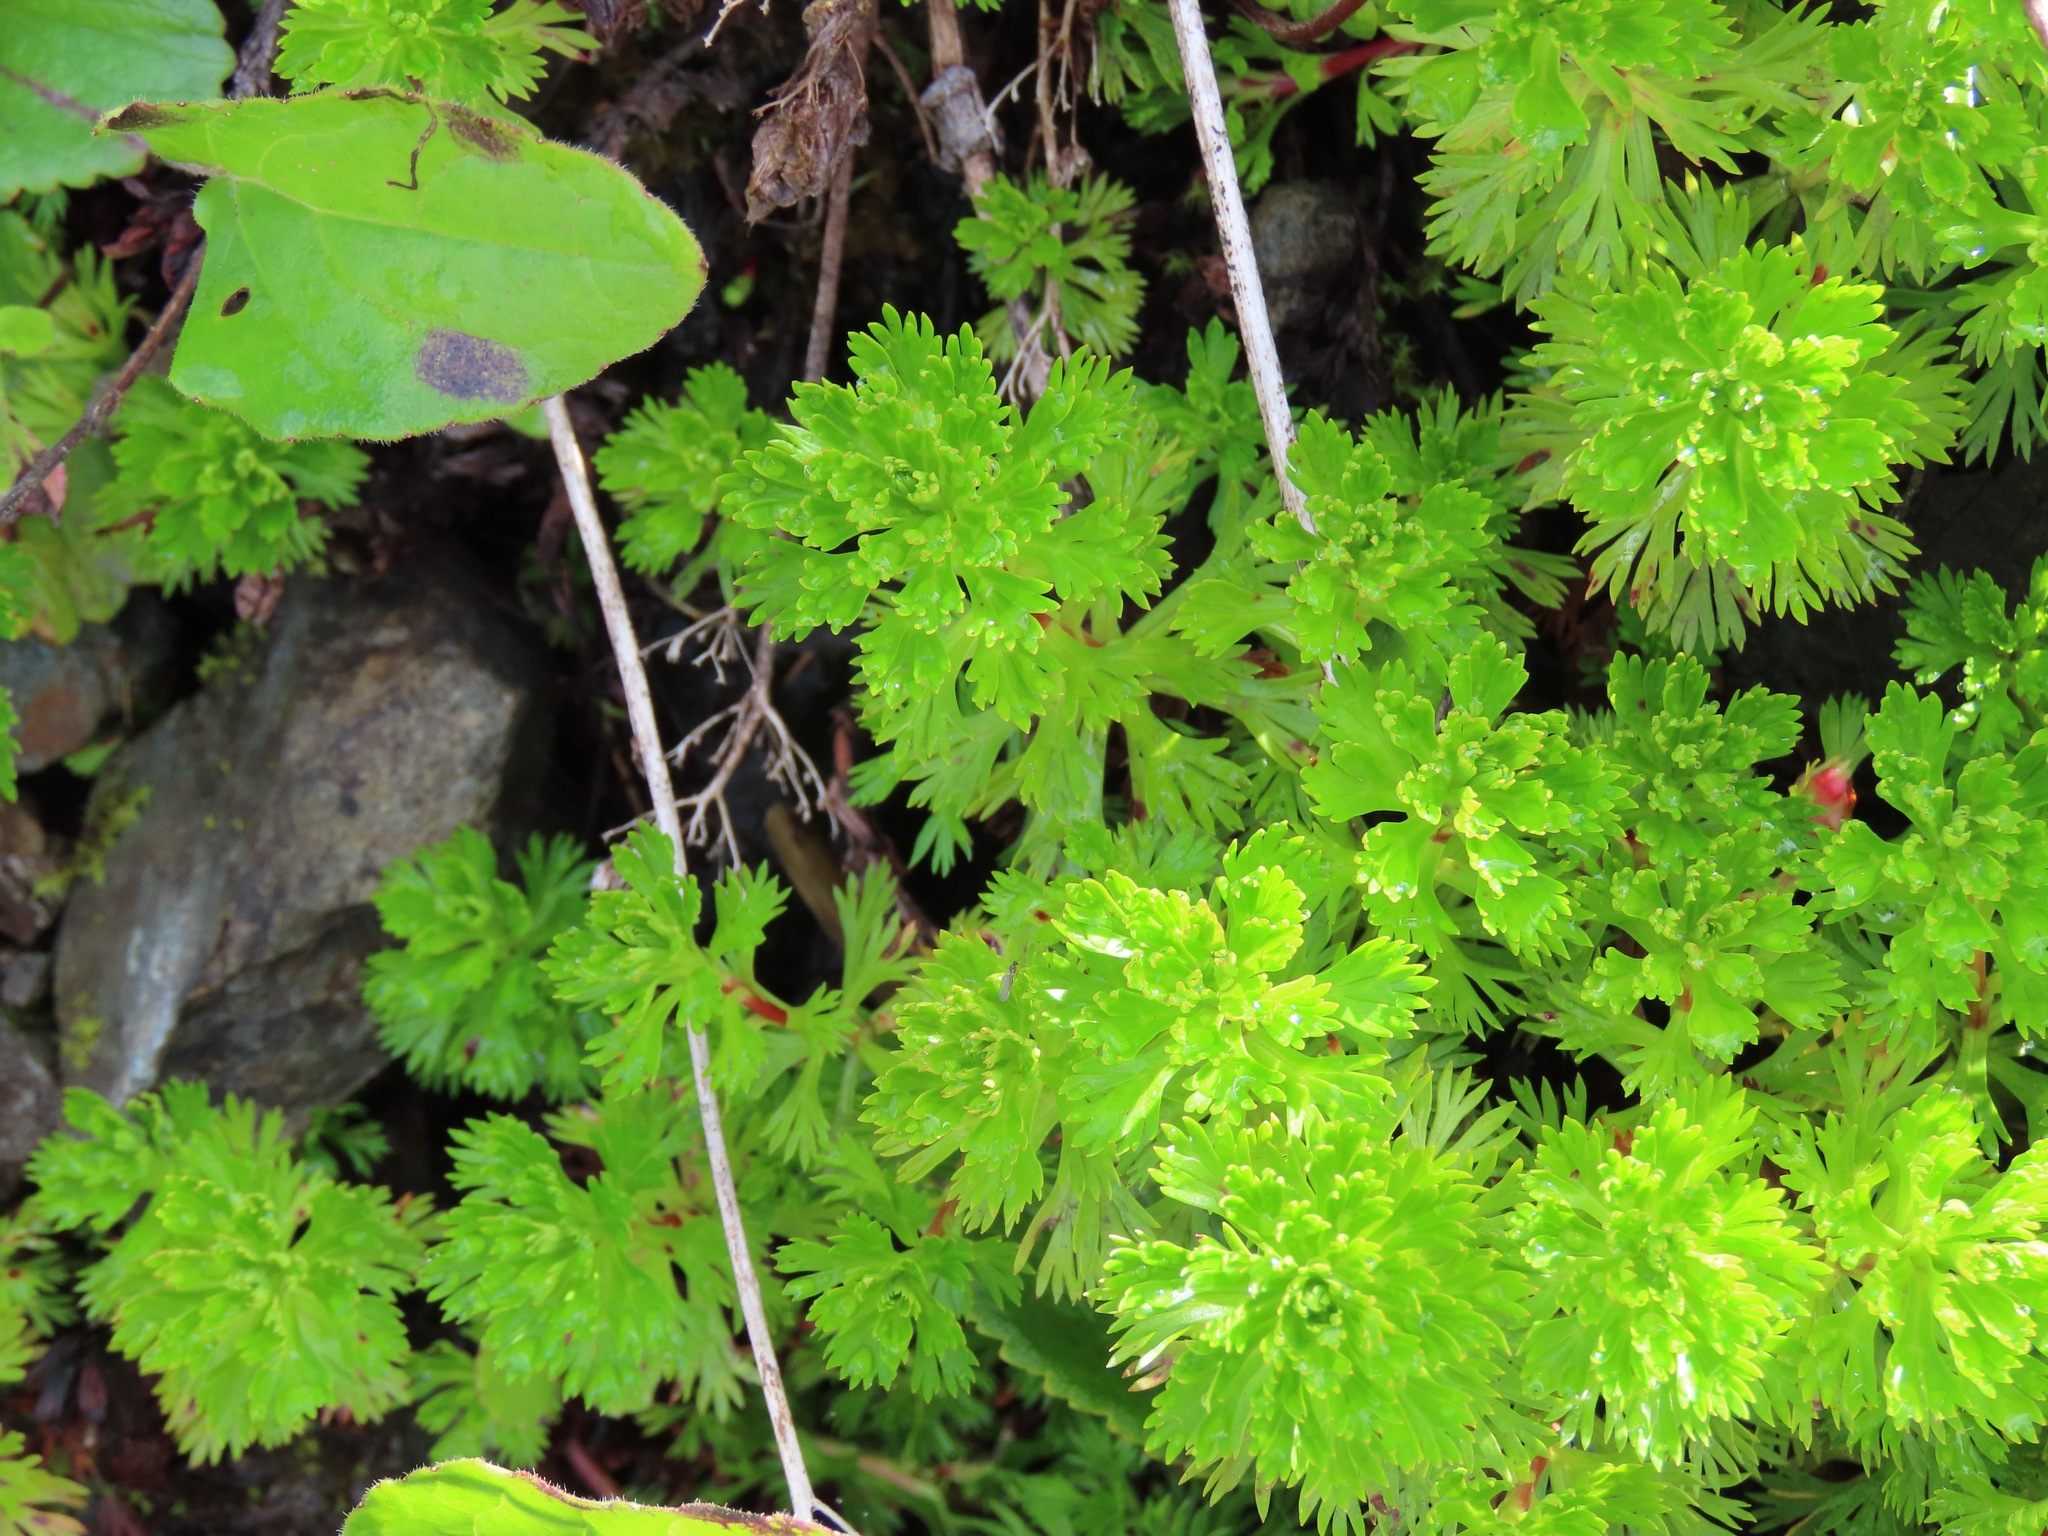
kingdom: Plantae
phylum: Tracheophyta
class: Magnoliopsida
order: Rosales
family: Rosaceae
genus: Luetkea
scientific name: Luetkea pectinata
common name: Partridgefoot
